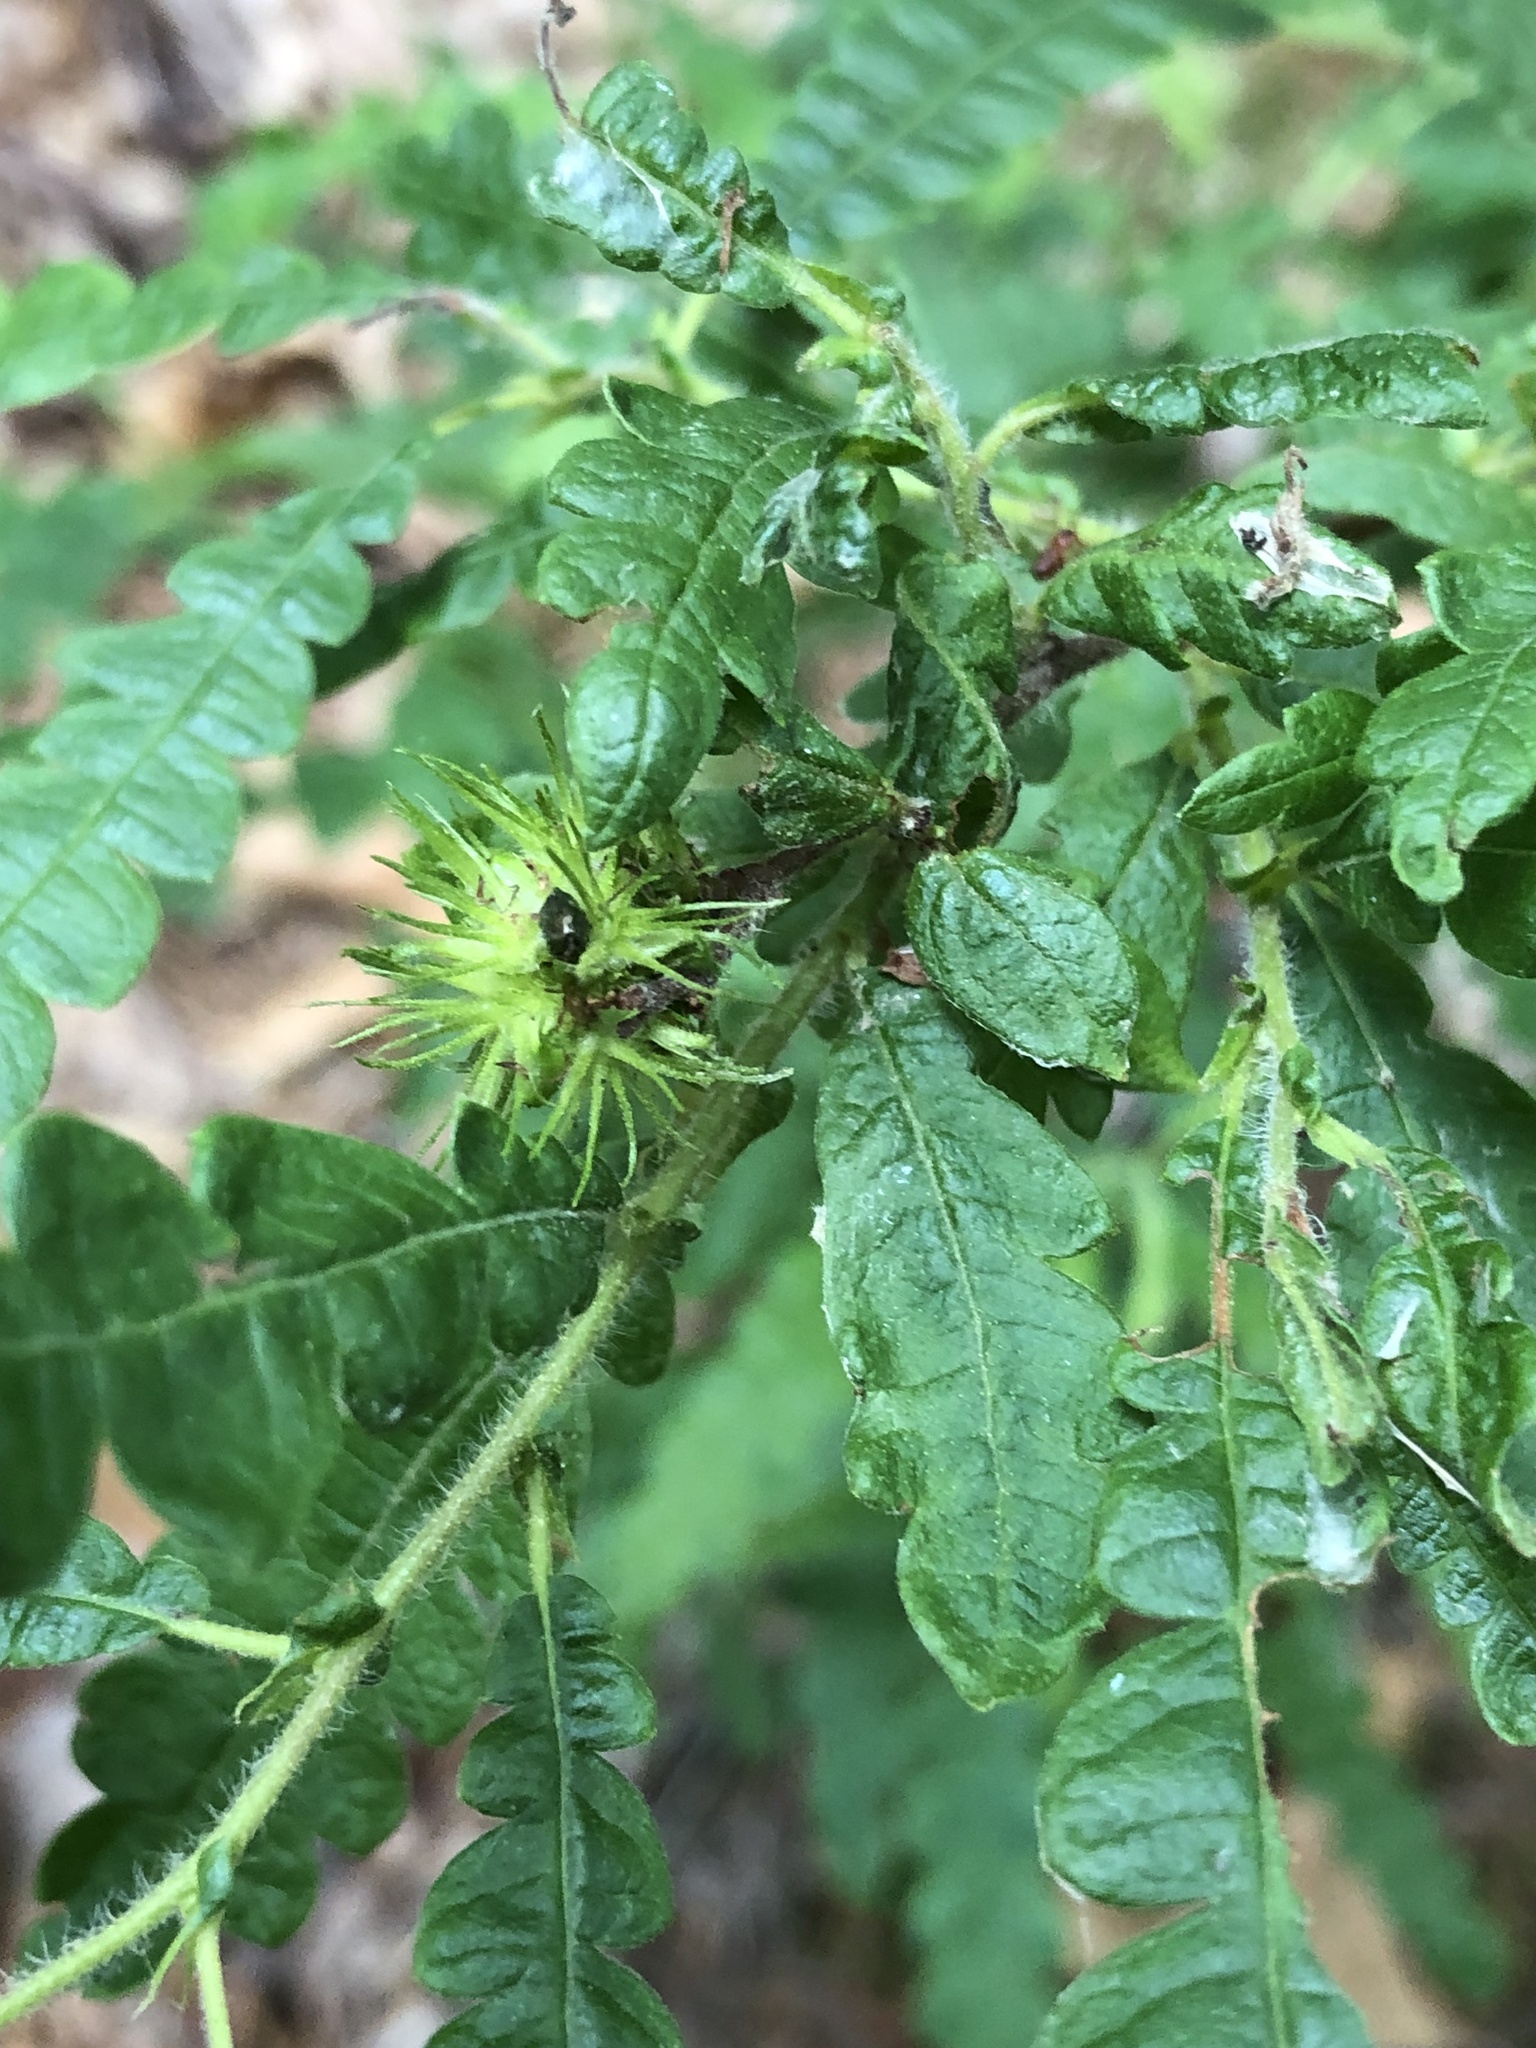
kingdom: Plantae
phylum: Tracheophyta
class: Magnoliopsida
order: Fagales
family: Myricaceae
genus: Comptonia
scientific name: Comptonia peregrina
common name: Sweet-fern
